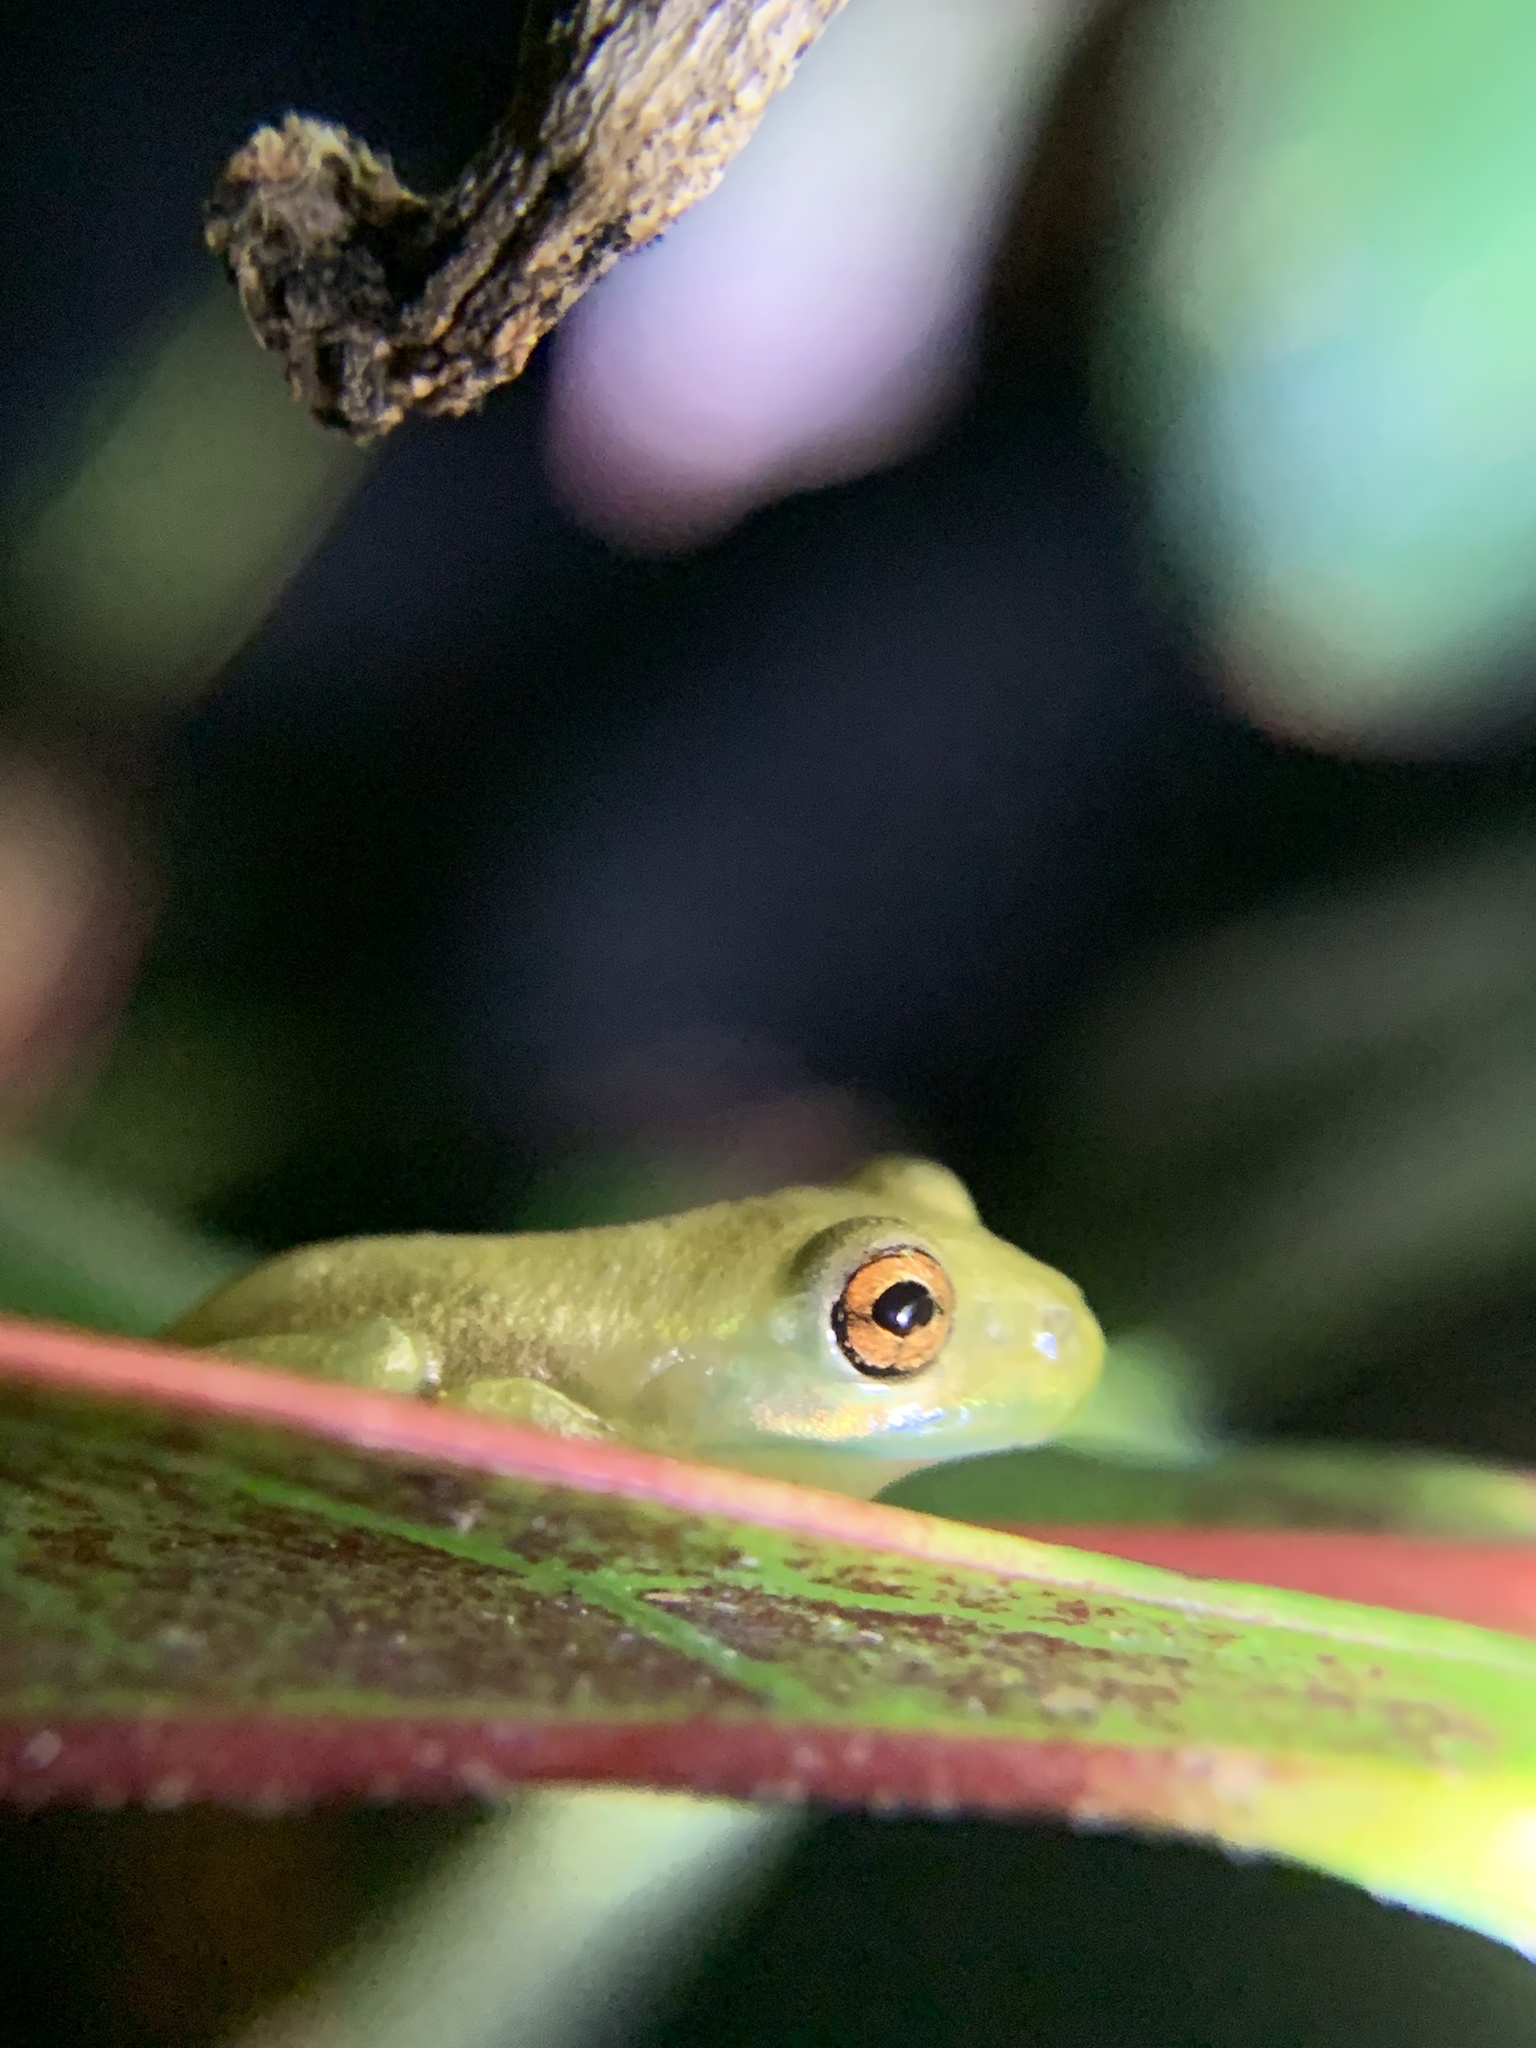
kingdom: Animalia
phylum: Chordata
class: Amphibia
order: Anura
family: Hylidae
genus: Osteopilus
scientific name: Osteopilus septentrionalis
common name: Cuban treefrog
